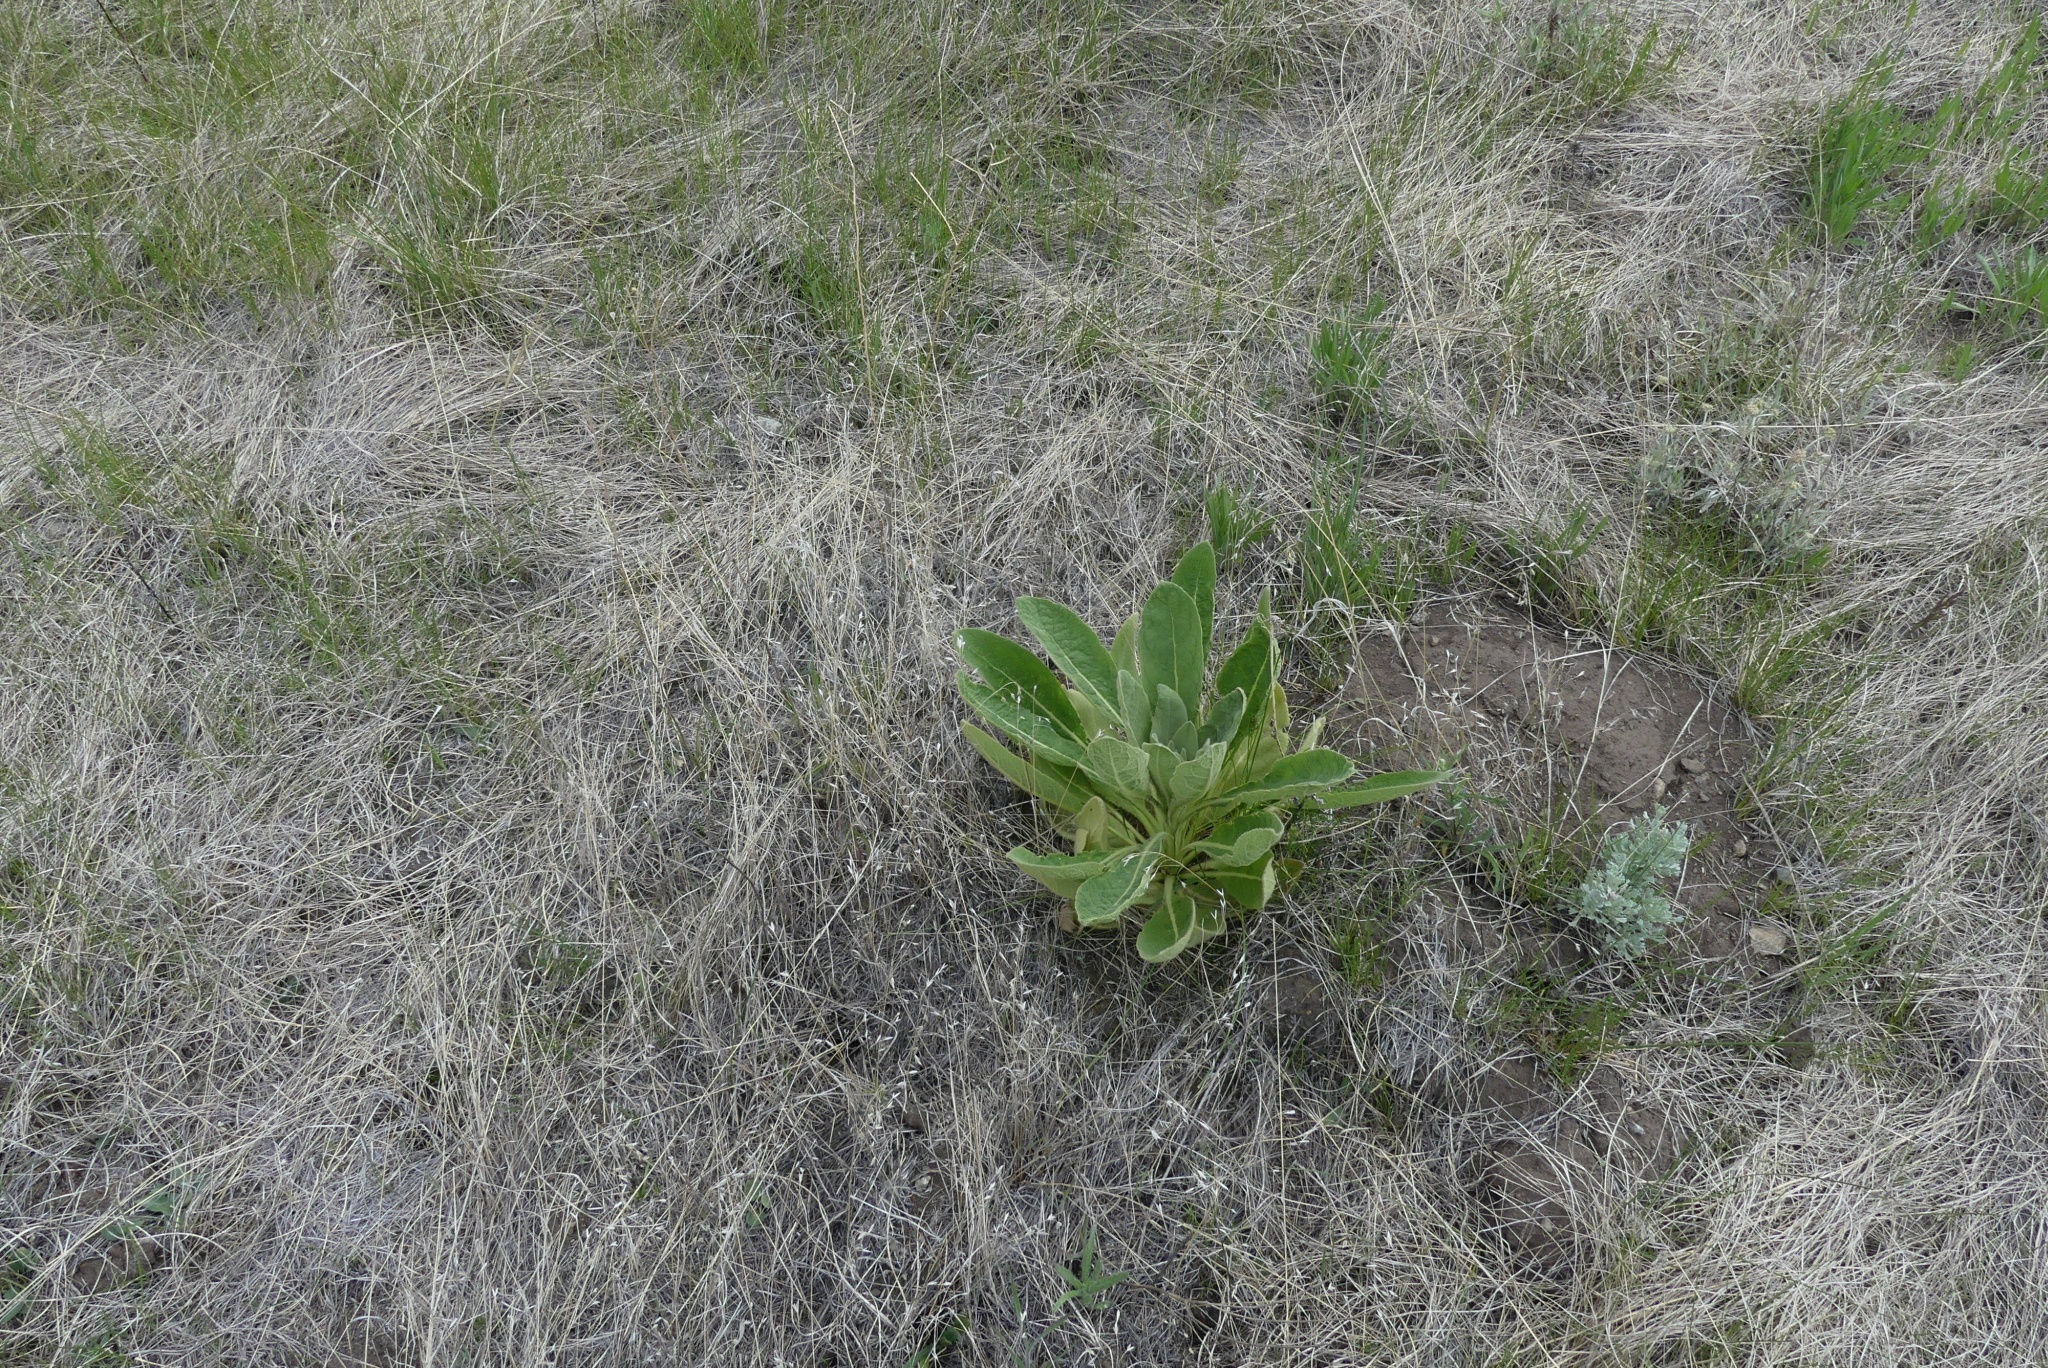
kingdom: Plantae
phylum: Tracheophyta
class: Magnoliopsida
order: Lamiales
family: Scrophulariaceae
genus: Verbascum
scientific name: Verbascum thapsus
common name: Common mullein
